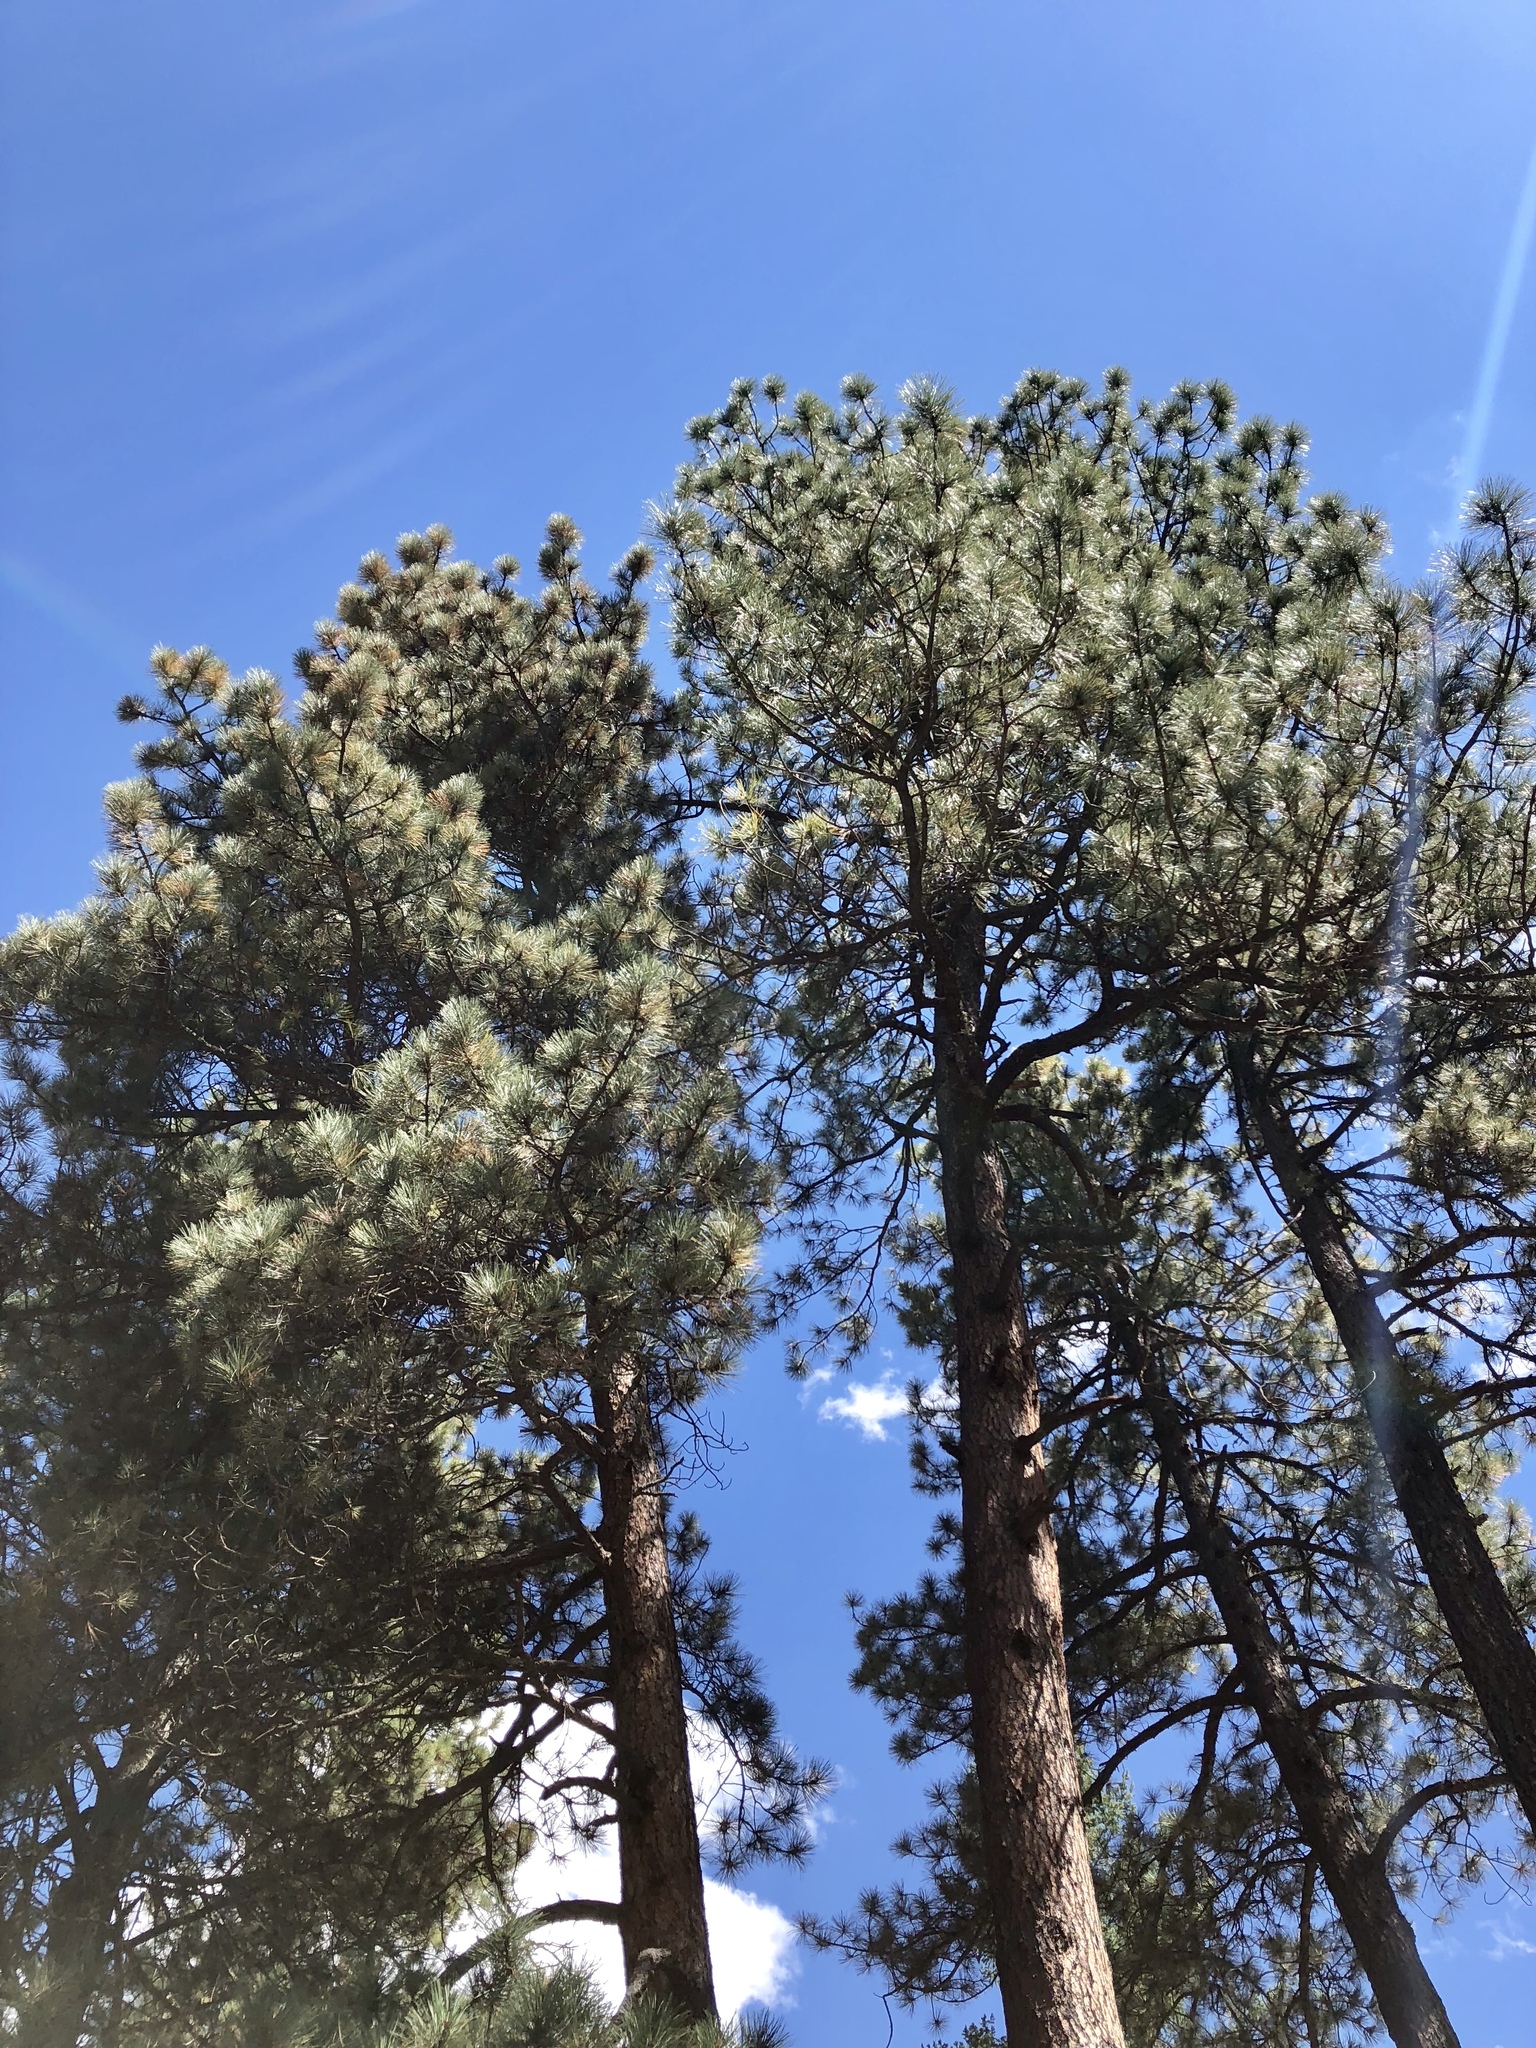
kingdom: Plantae
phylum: Tracheophyta
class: Pinopsida
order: Pinales
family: Pinaceae
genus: Pinus
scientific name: Pinus ponderosa
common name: Western yellow-pine
